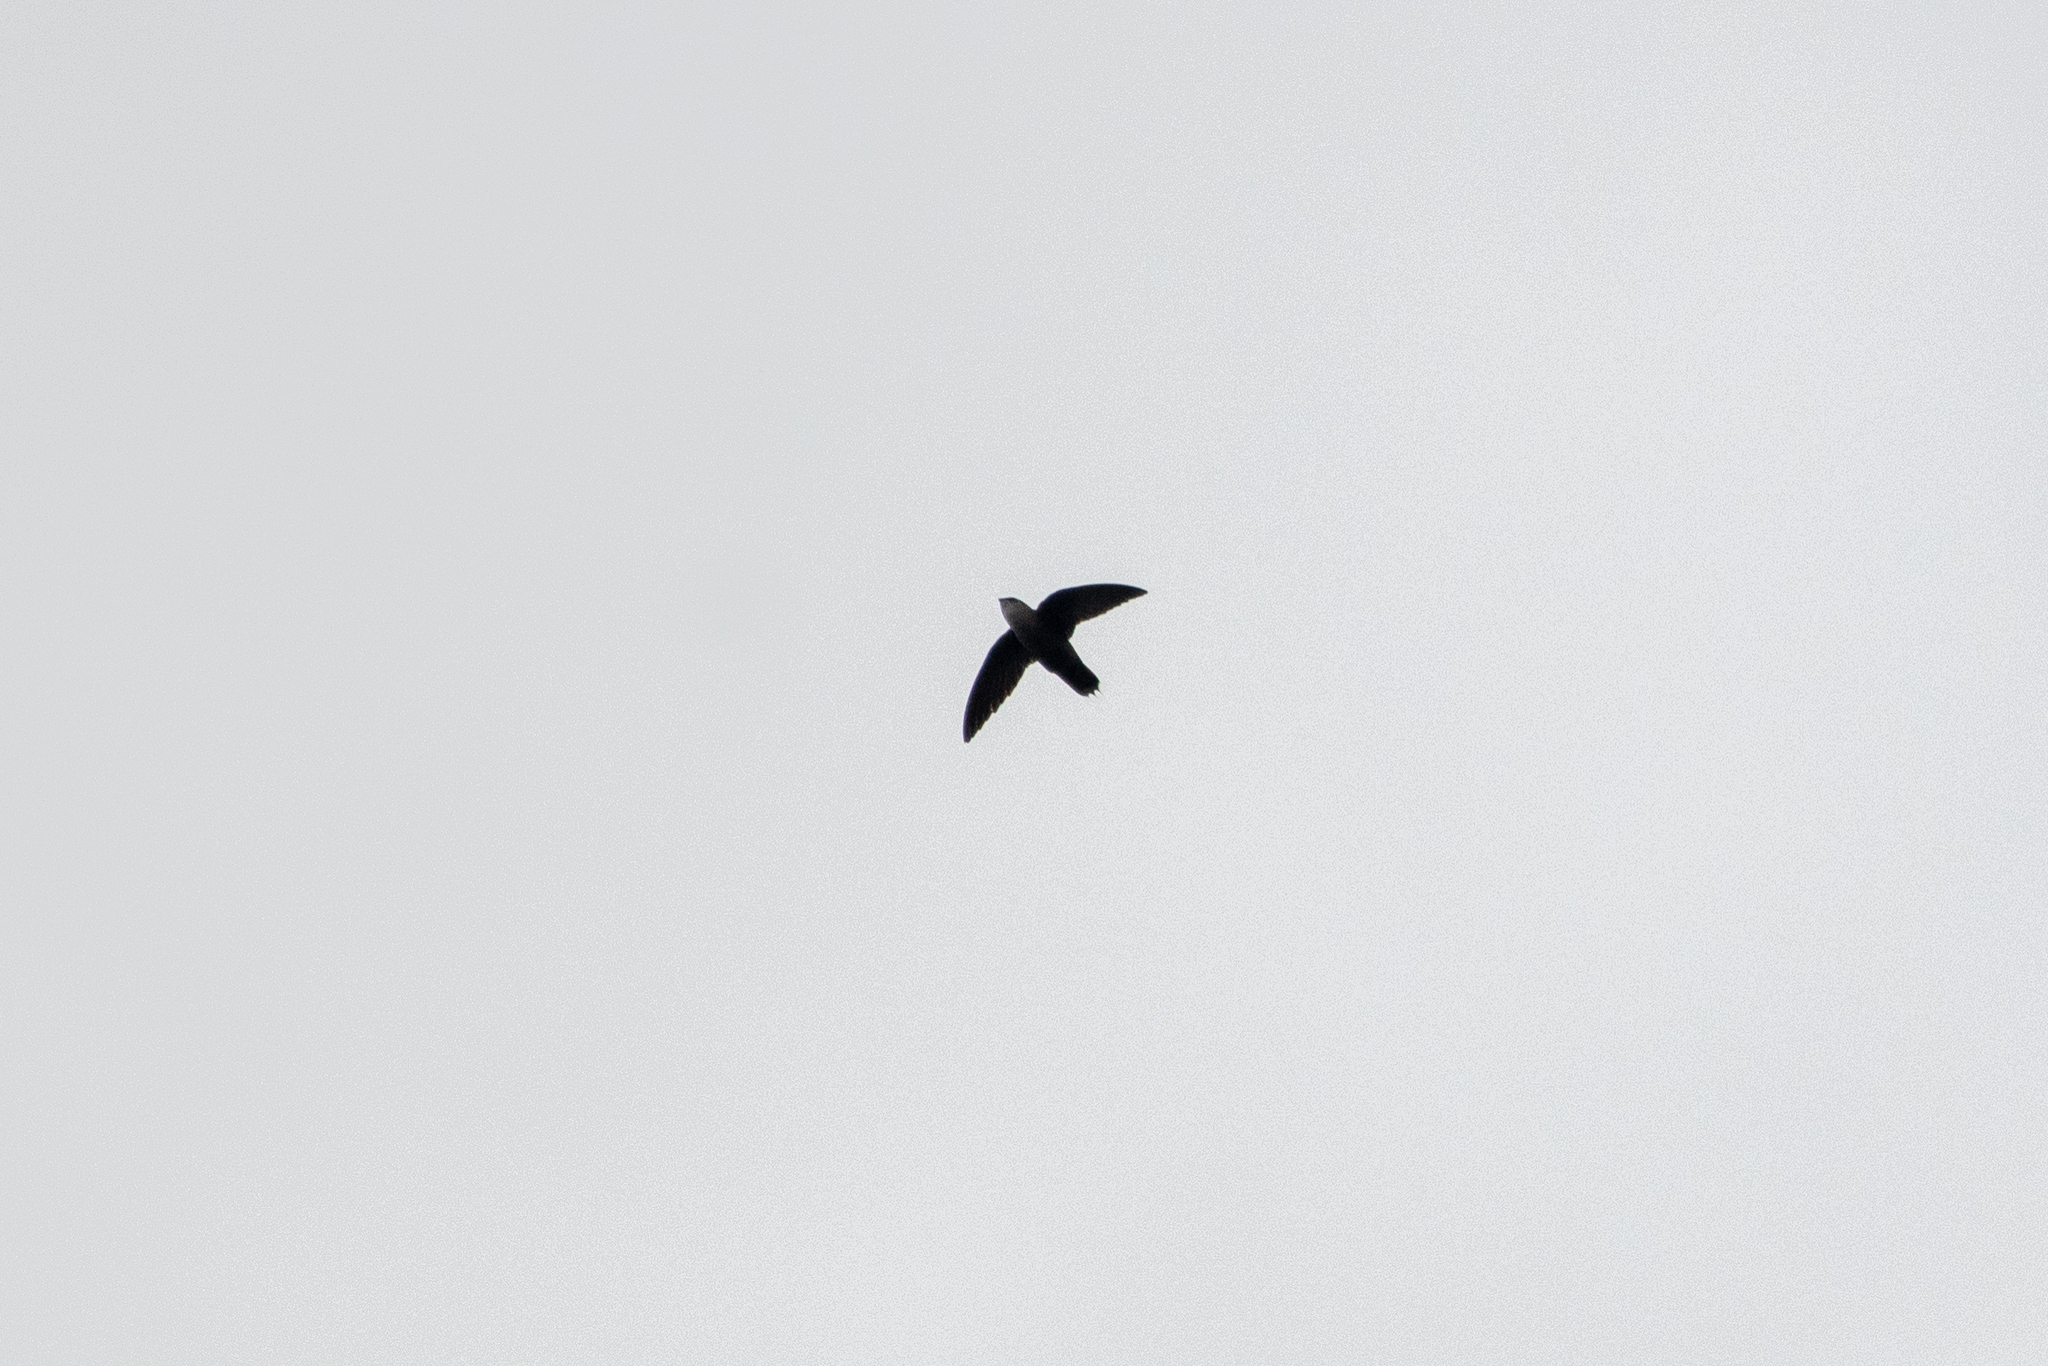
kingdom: Animalia
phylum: Chordata
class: Aves
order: Apodiformes
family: Apodidae
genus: Chaetura
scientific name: Chaetura vauxi
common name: Vaux's swift
